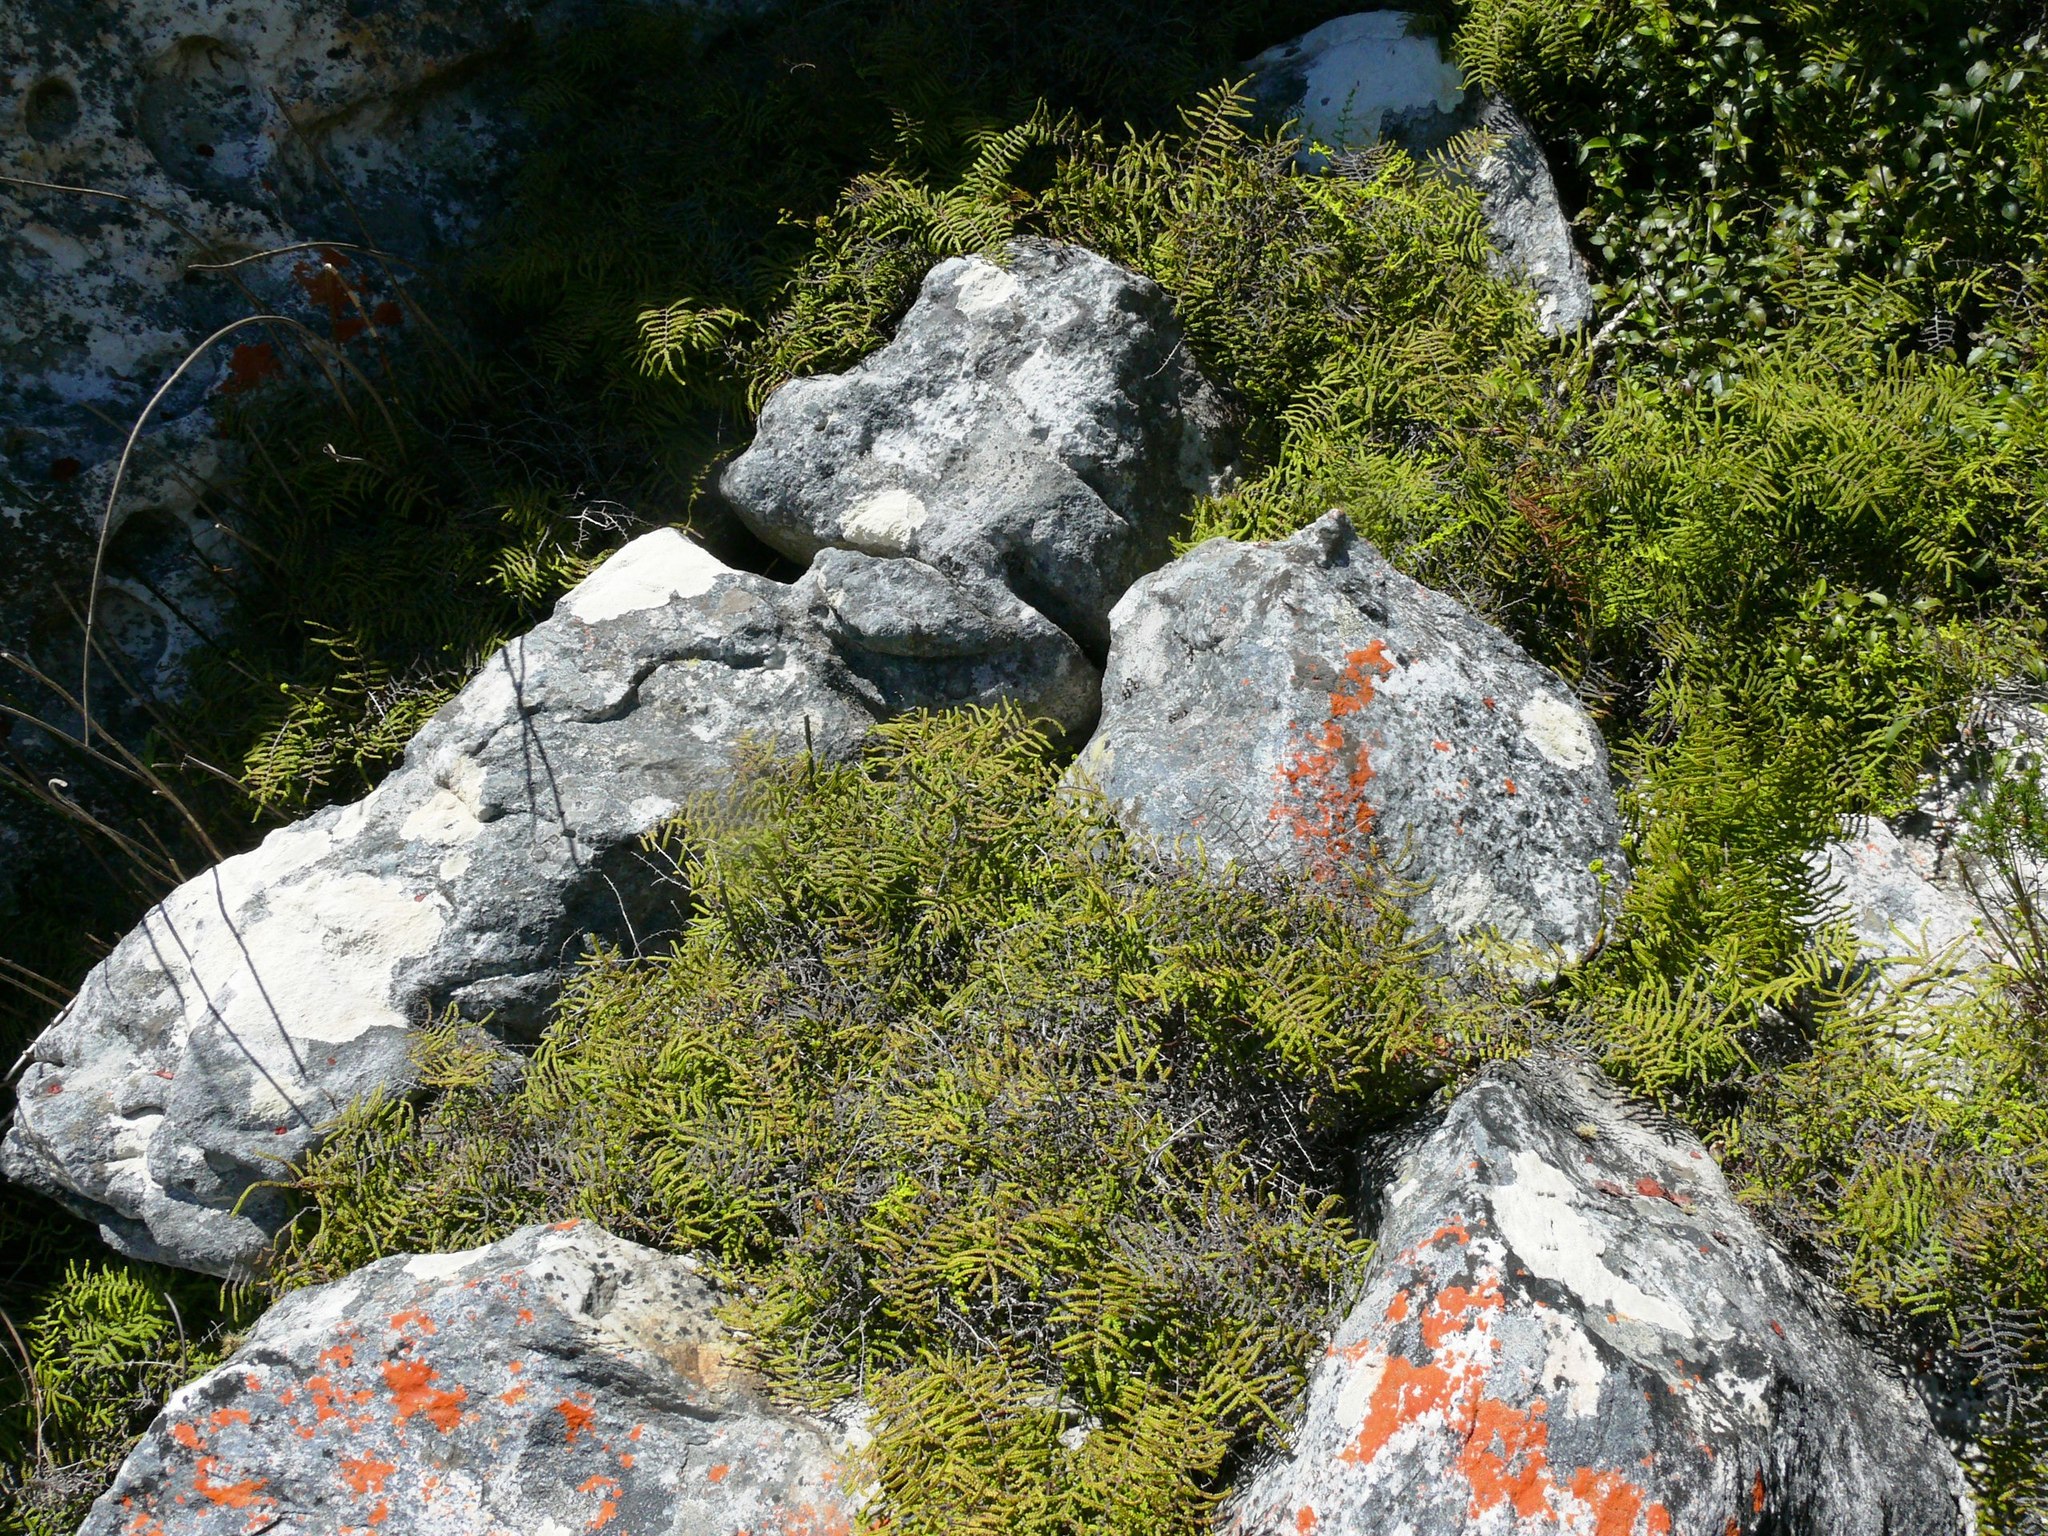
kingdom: Plantae
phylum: Tracheophyta
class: Polypodiopsida
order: Gleicheniales
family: Gleicheniaceae
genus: Gleichenia
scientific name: Gleichenia polypodioides
